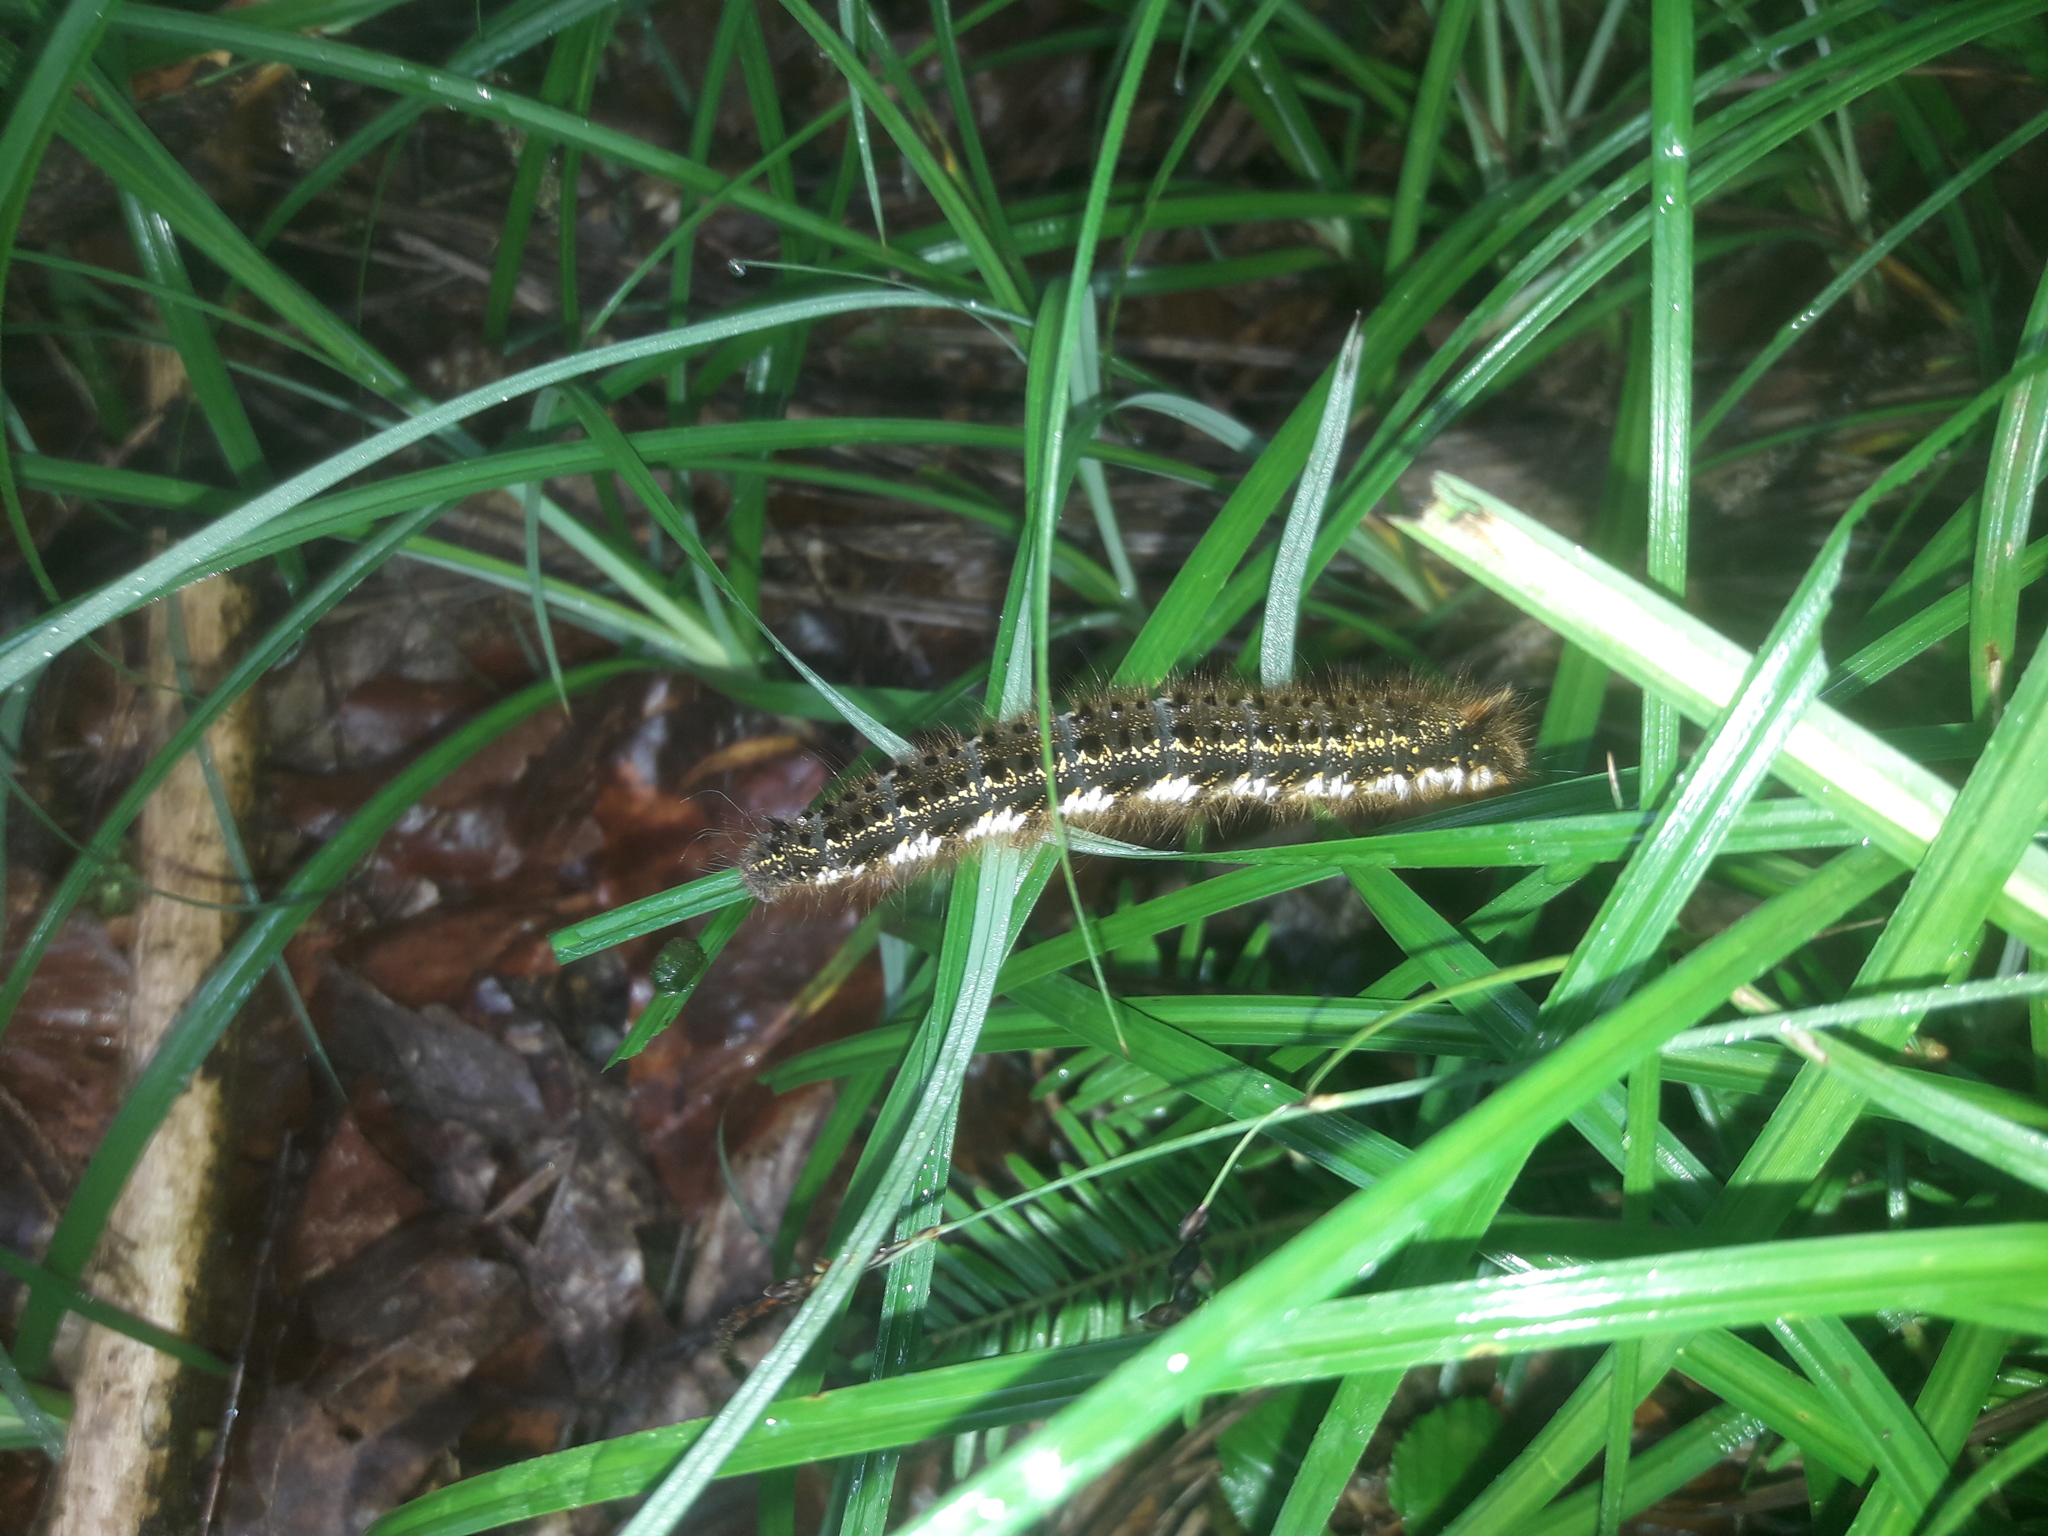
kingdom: Animalia
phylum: Arthropoda
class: Insecta
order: Lepidoptera
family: Lasiocampidae
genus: Euthrix
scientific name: Euthrix potatoria
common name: Drinker
